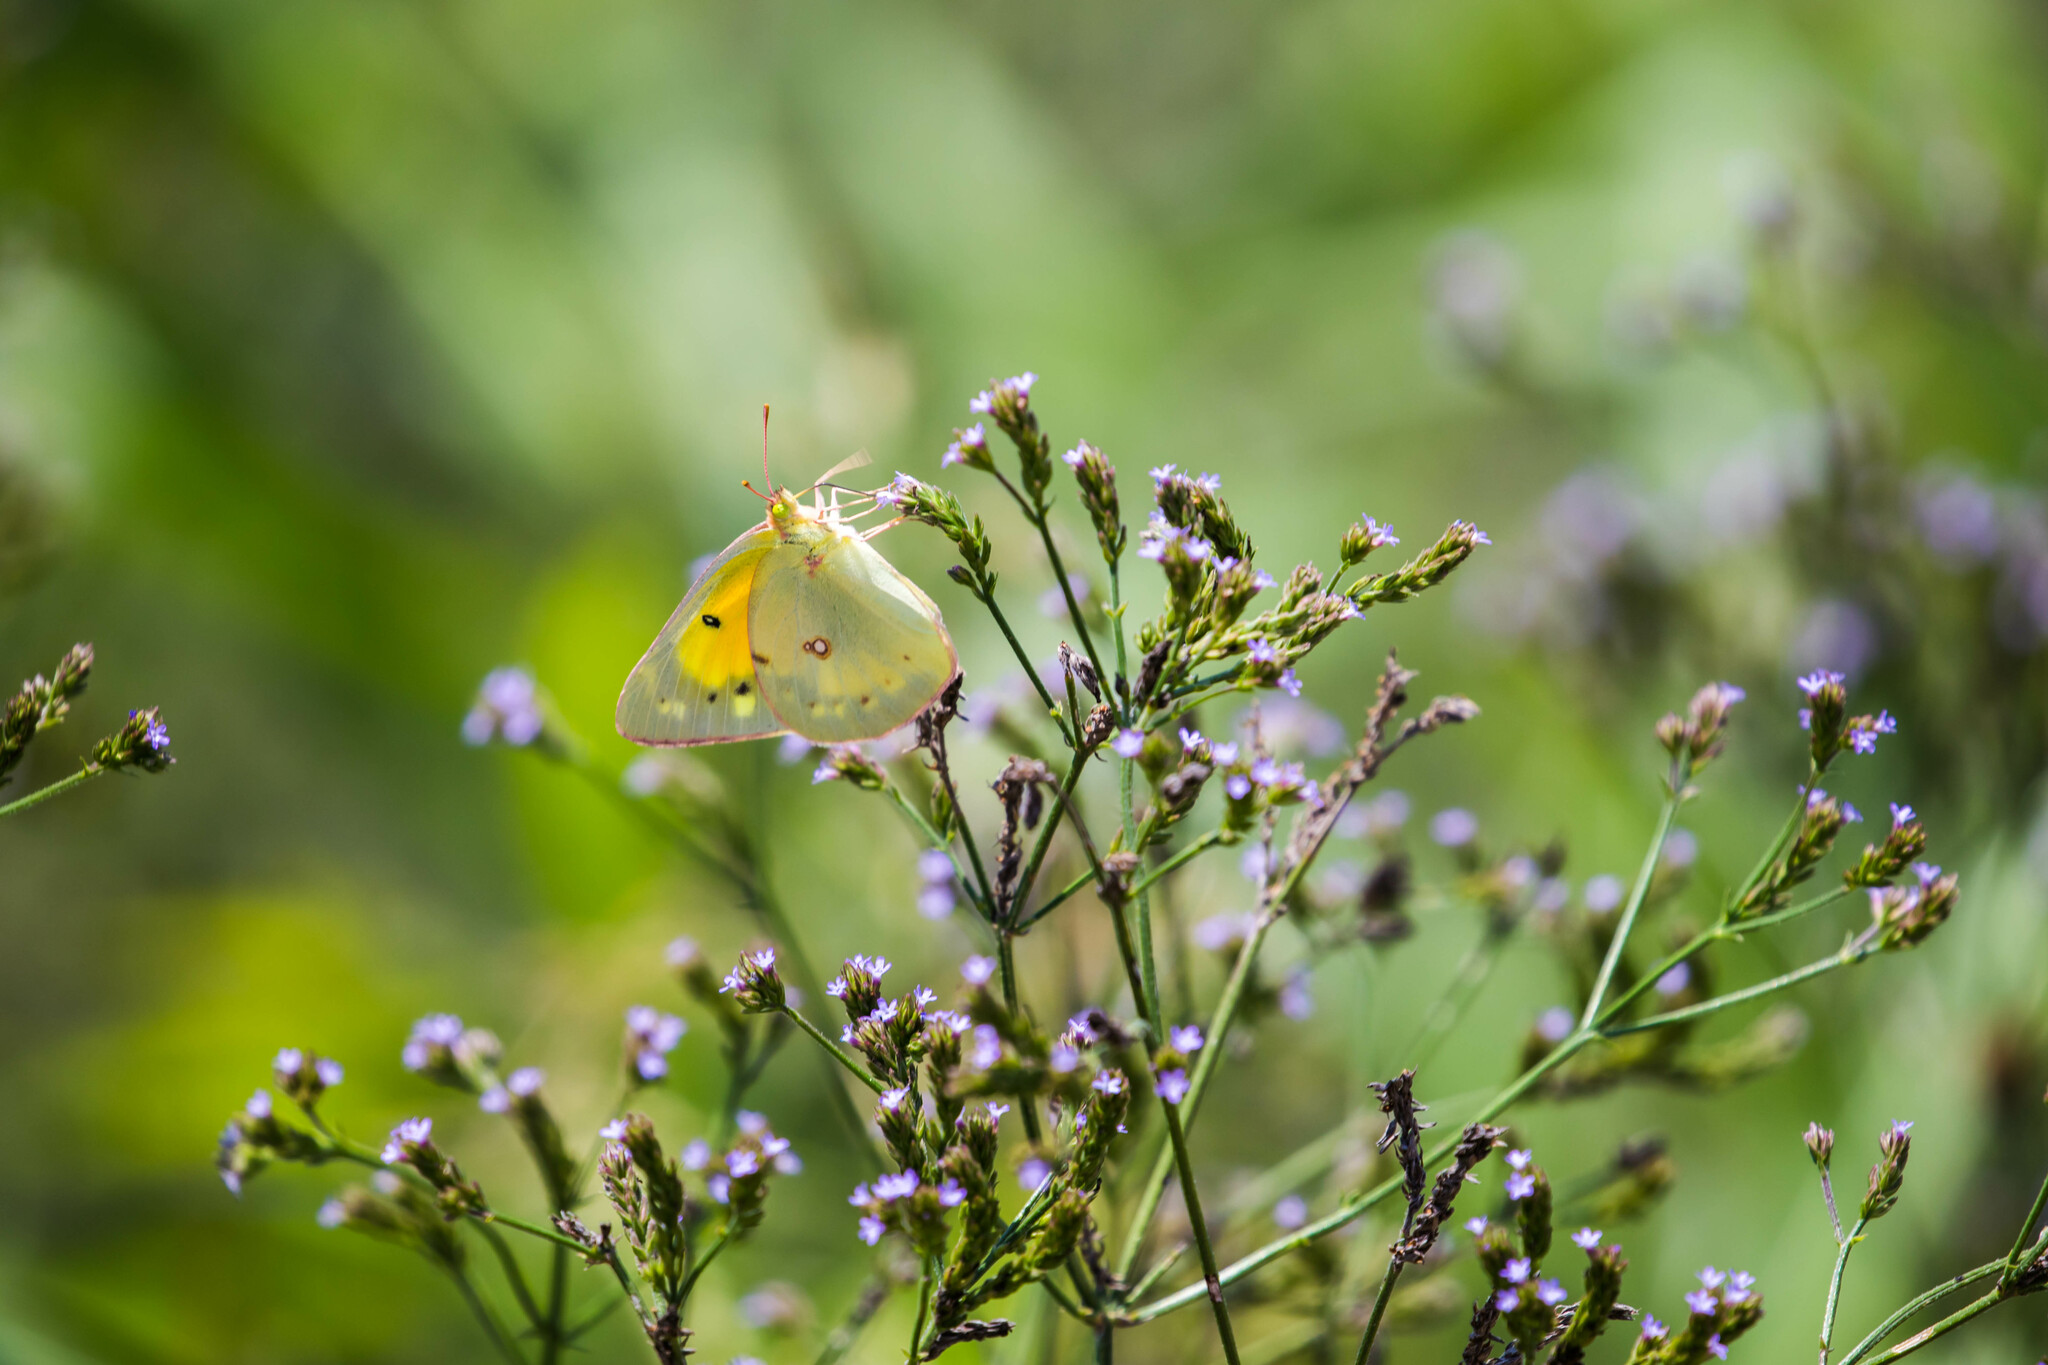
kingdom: Animalia
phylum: Arthropoda
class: Insecta
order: Lepidoptera
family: Pieridae
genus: Colias
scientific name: Colias eurytheme
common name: Alfalfa butterfly
